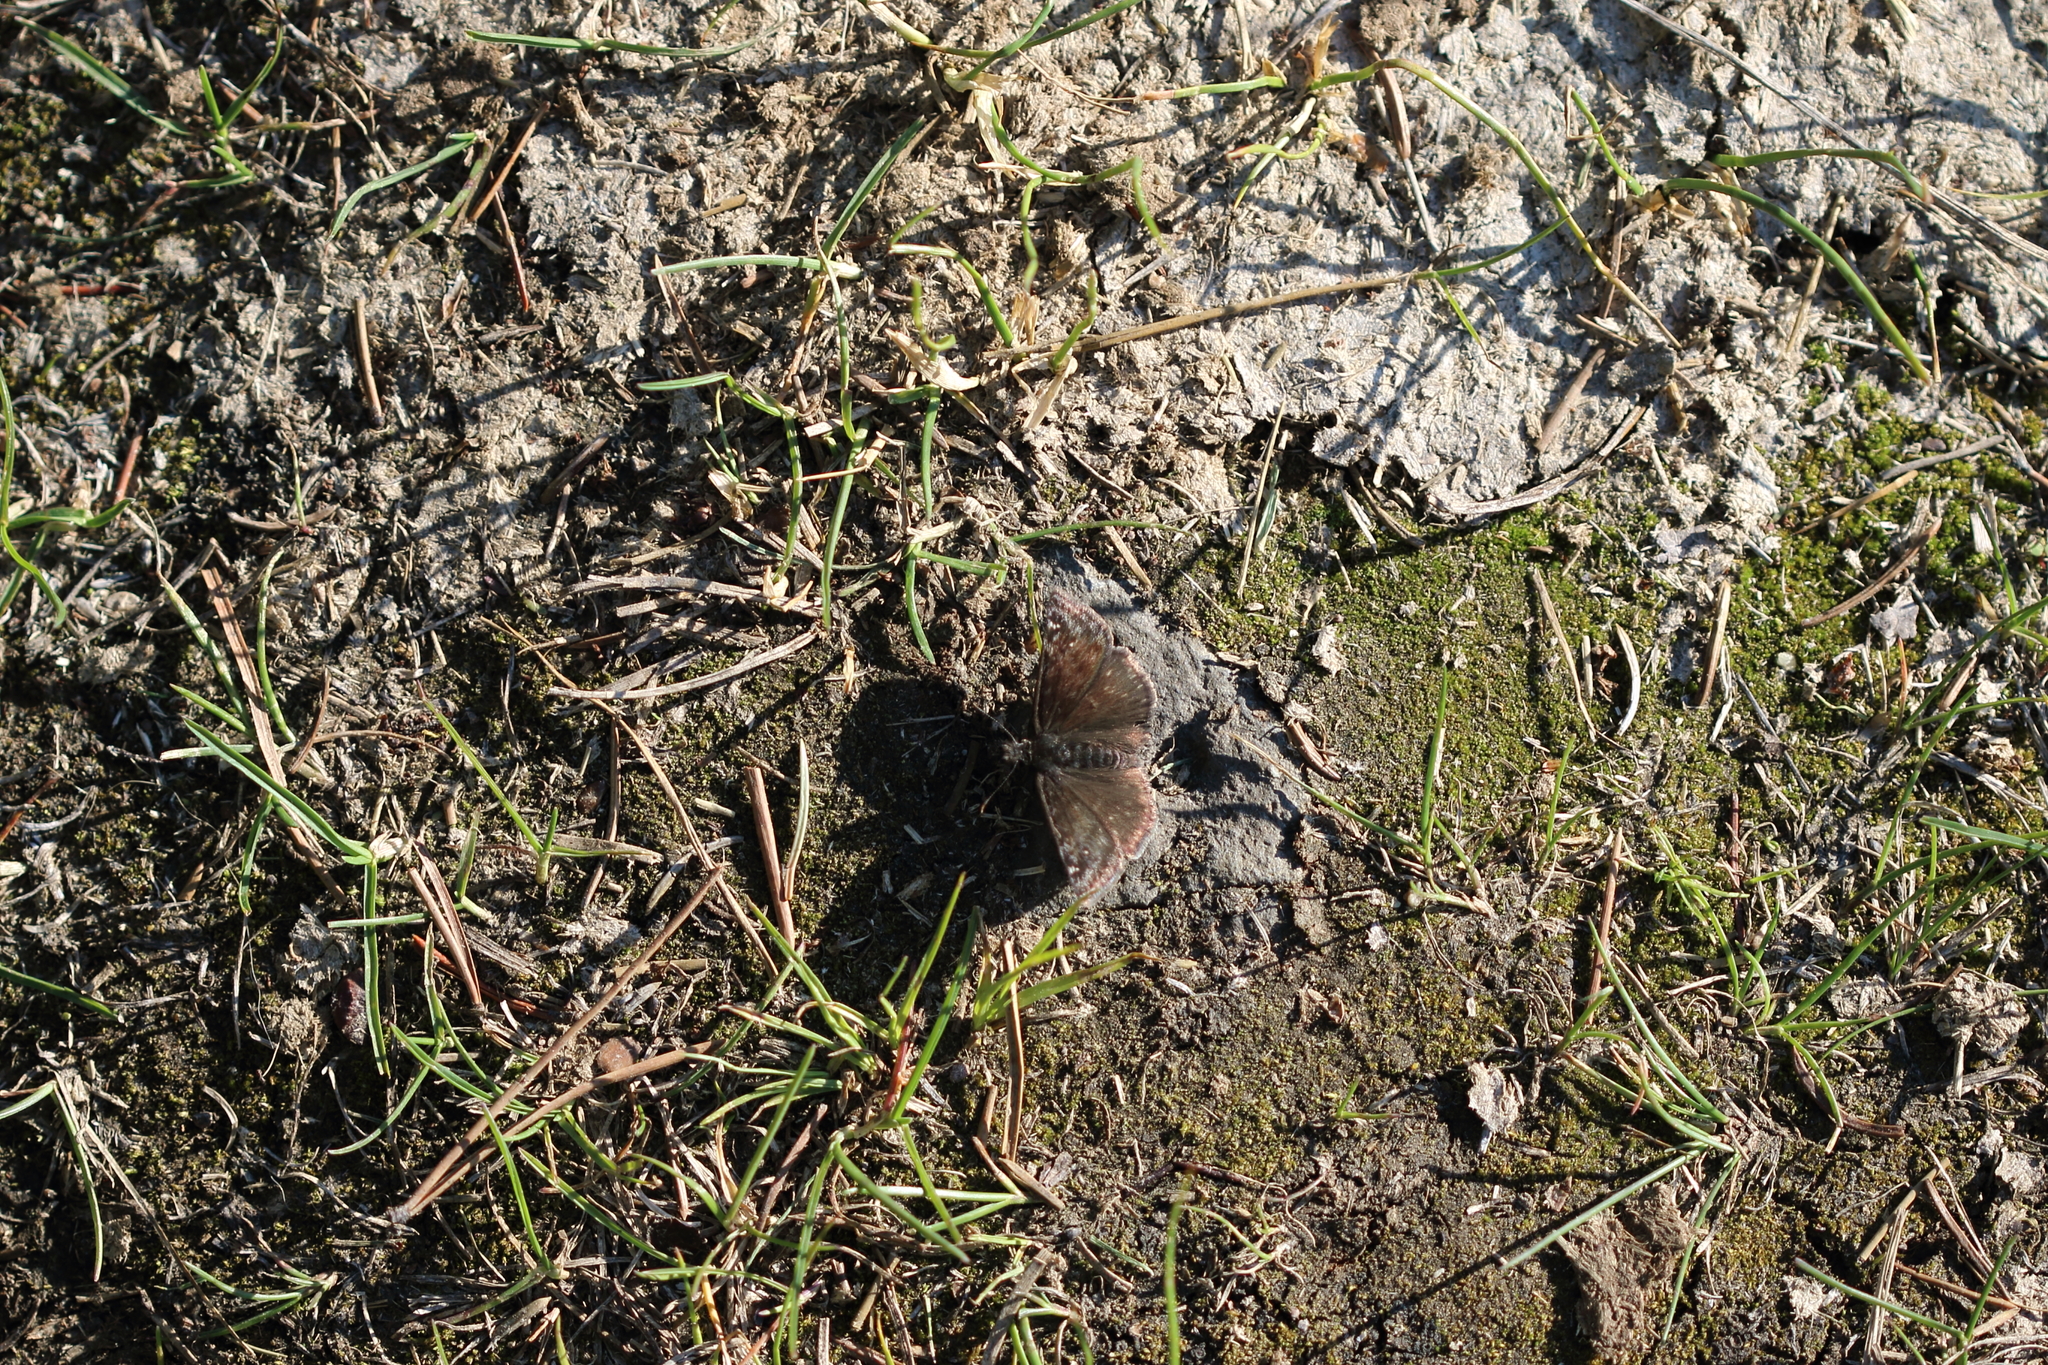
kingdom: Animalia
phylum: Arthropoda
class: Insecta
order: Lepidoptera
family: Hesperiidae
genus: Erynnis
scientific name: Erynnis persius
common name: Persius duskywing
